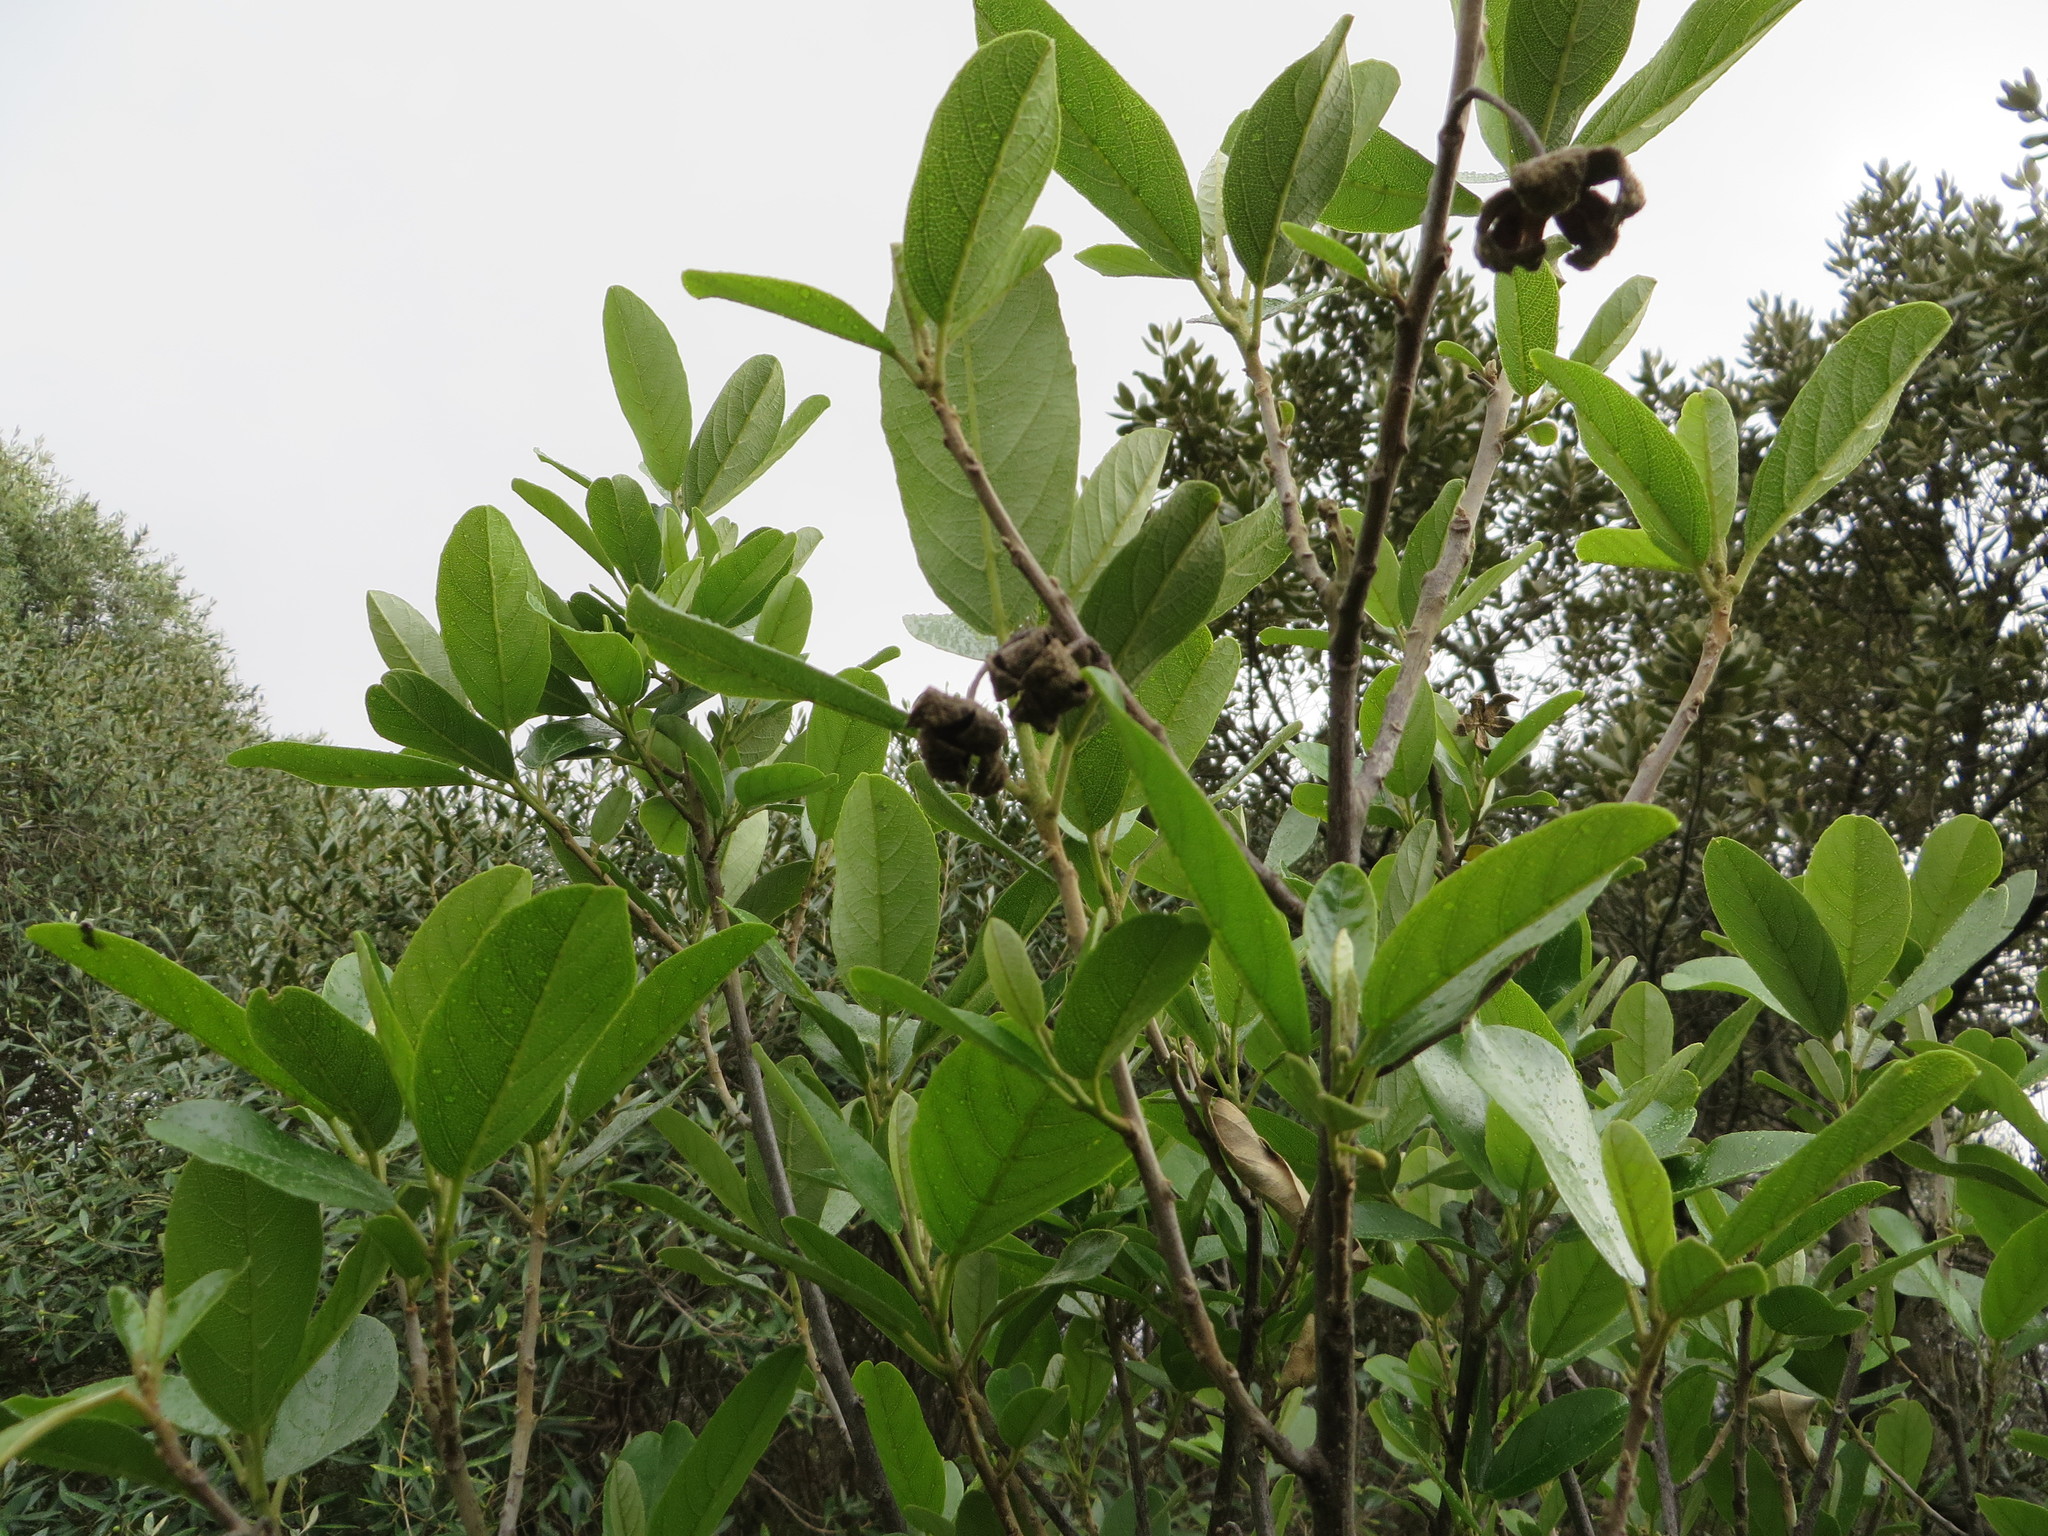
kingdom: Plantae
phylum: Tracheophyta
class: Magnoliopsida
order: Malpighiales
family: Achariaceae
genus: Kiggelaria
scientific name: Kiggelaria africana
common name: Wild peach
